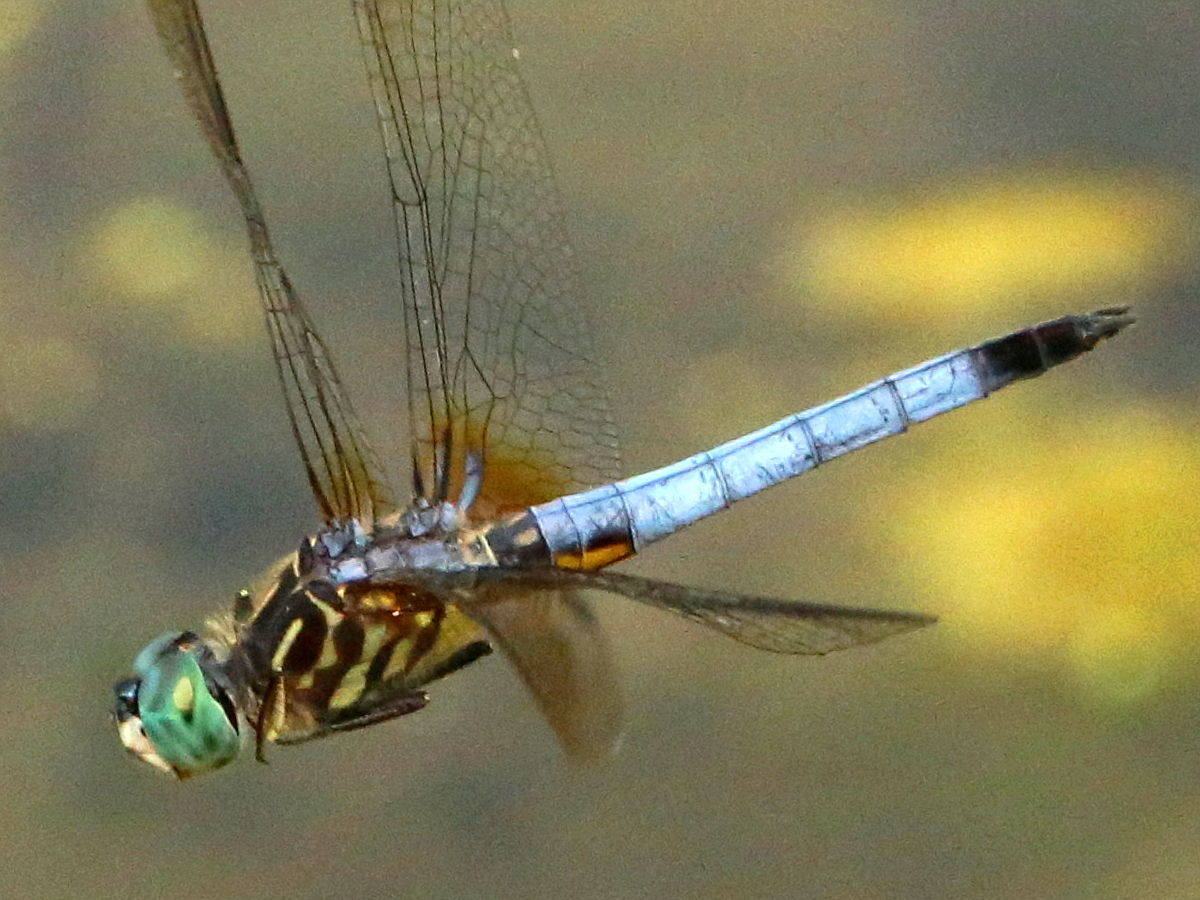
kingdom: Animalia
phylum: Arthropoda
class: Insecta
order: Odonata
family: Libellulidae
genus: Pachydiplax
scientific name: Pachydiplax longipennis
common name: Blue dasher
